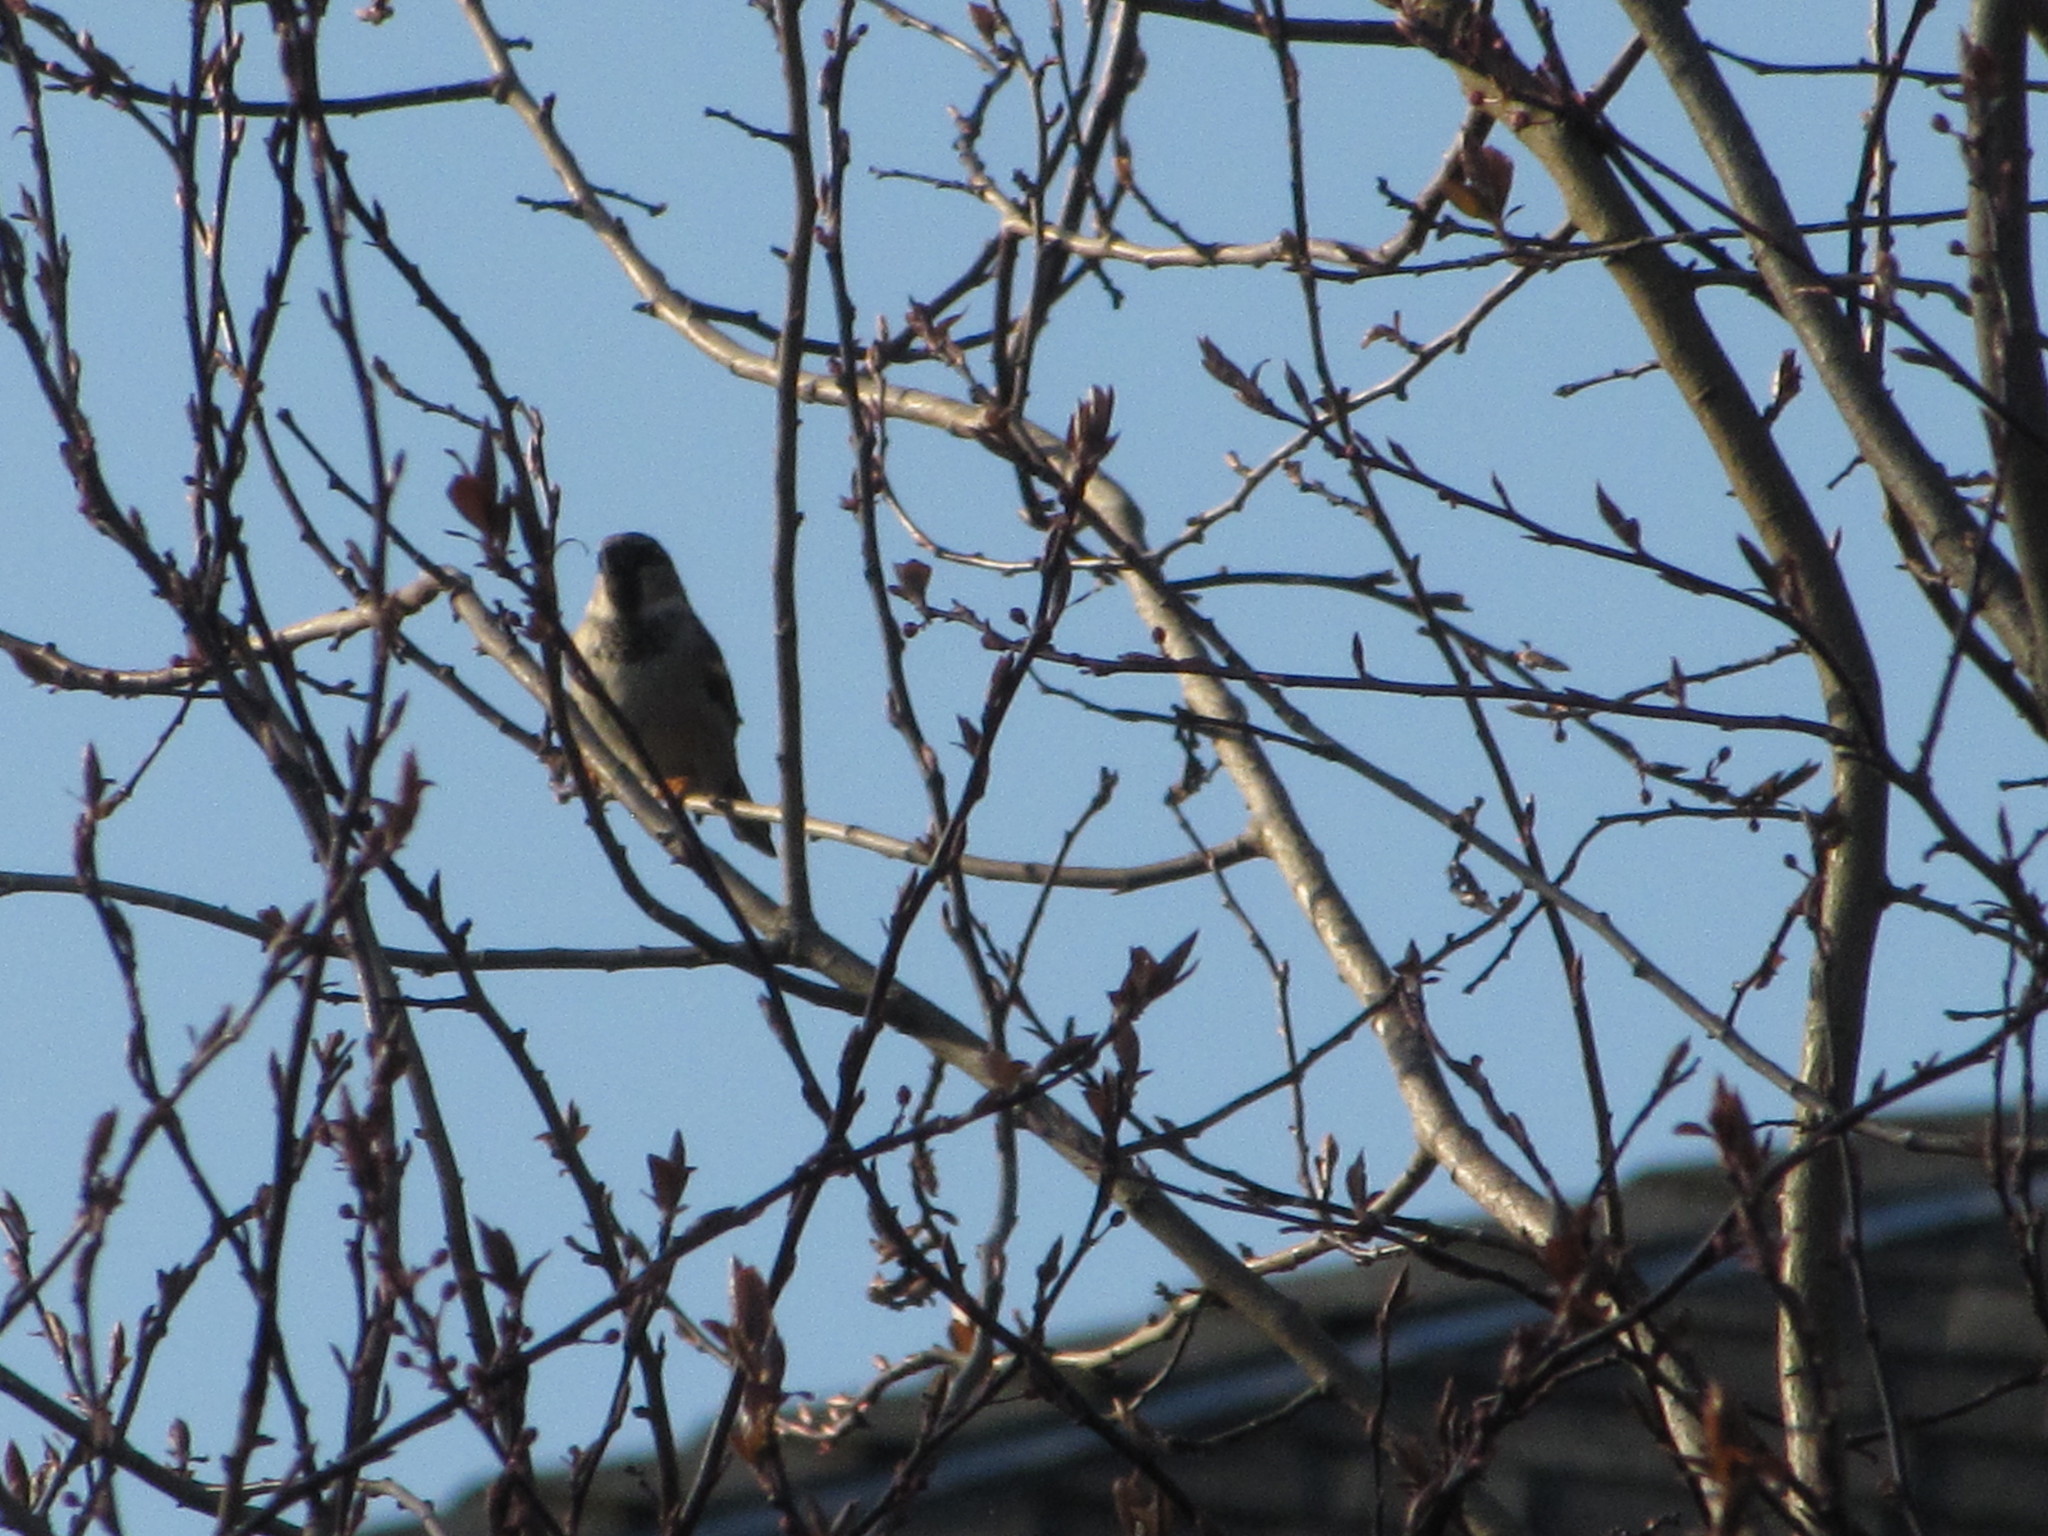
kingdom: Animalia
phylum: Chordata
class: Aves
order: Passeriformes
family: Passeridae
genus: Passer
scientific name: Passer domesticus
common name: House sparrow
